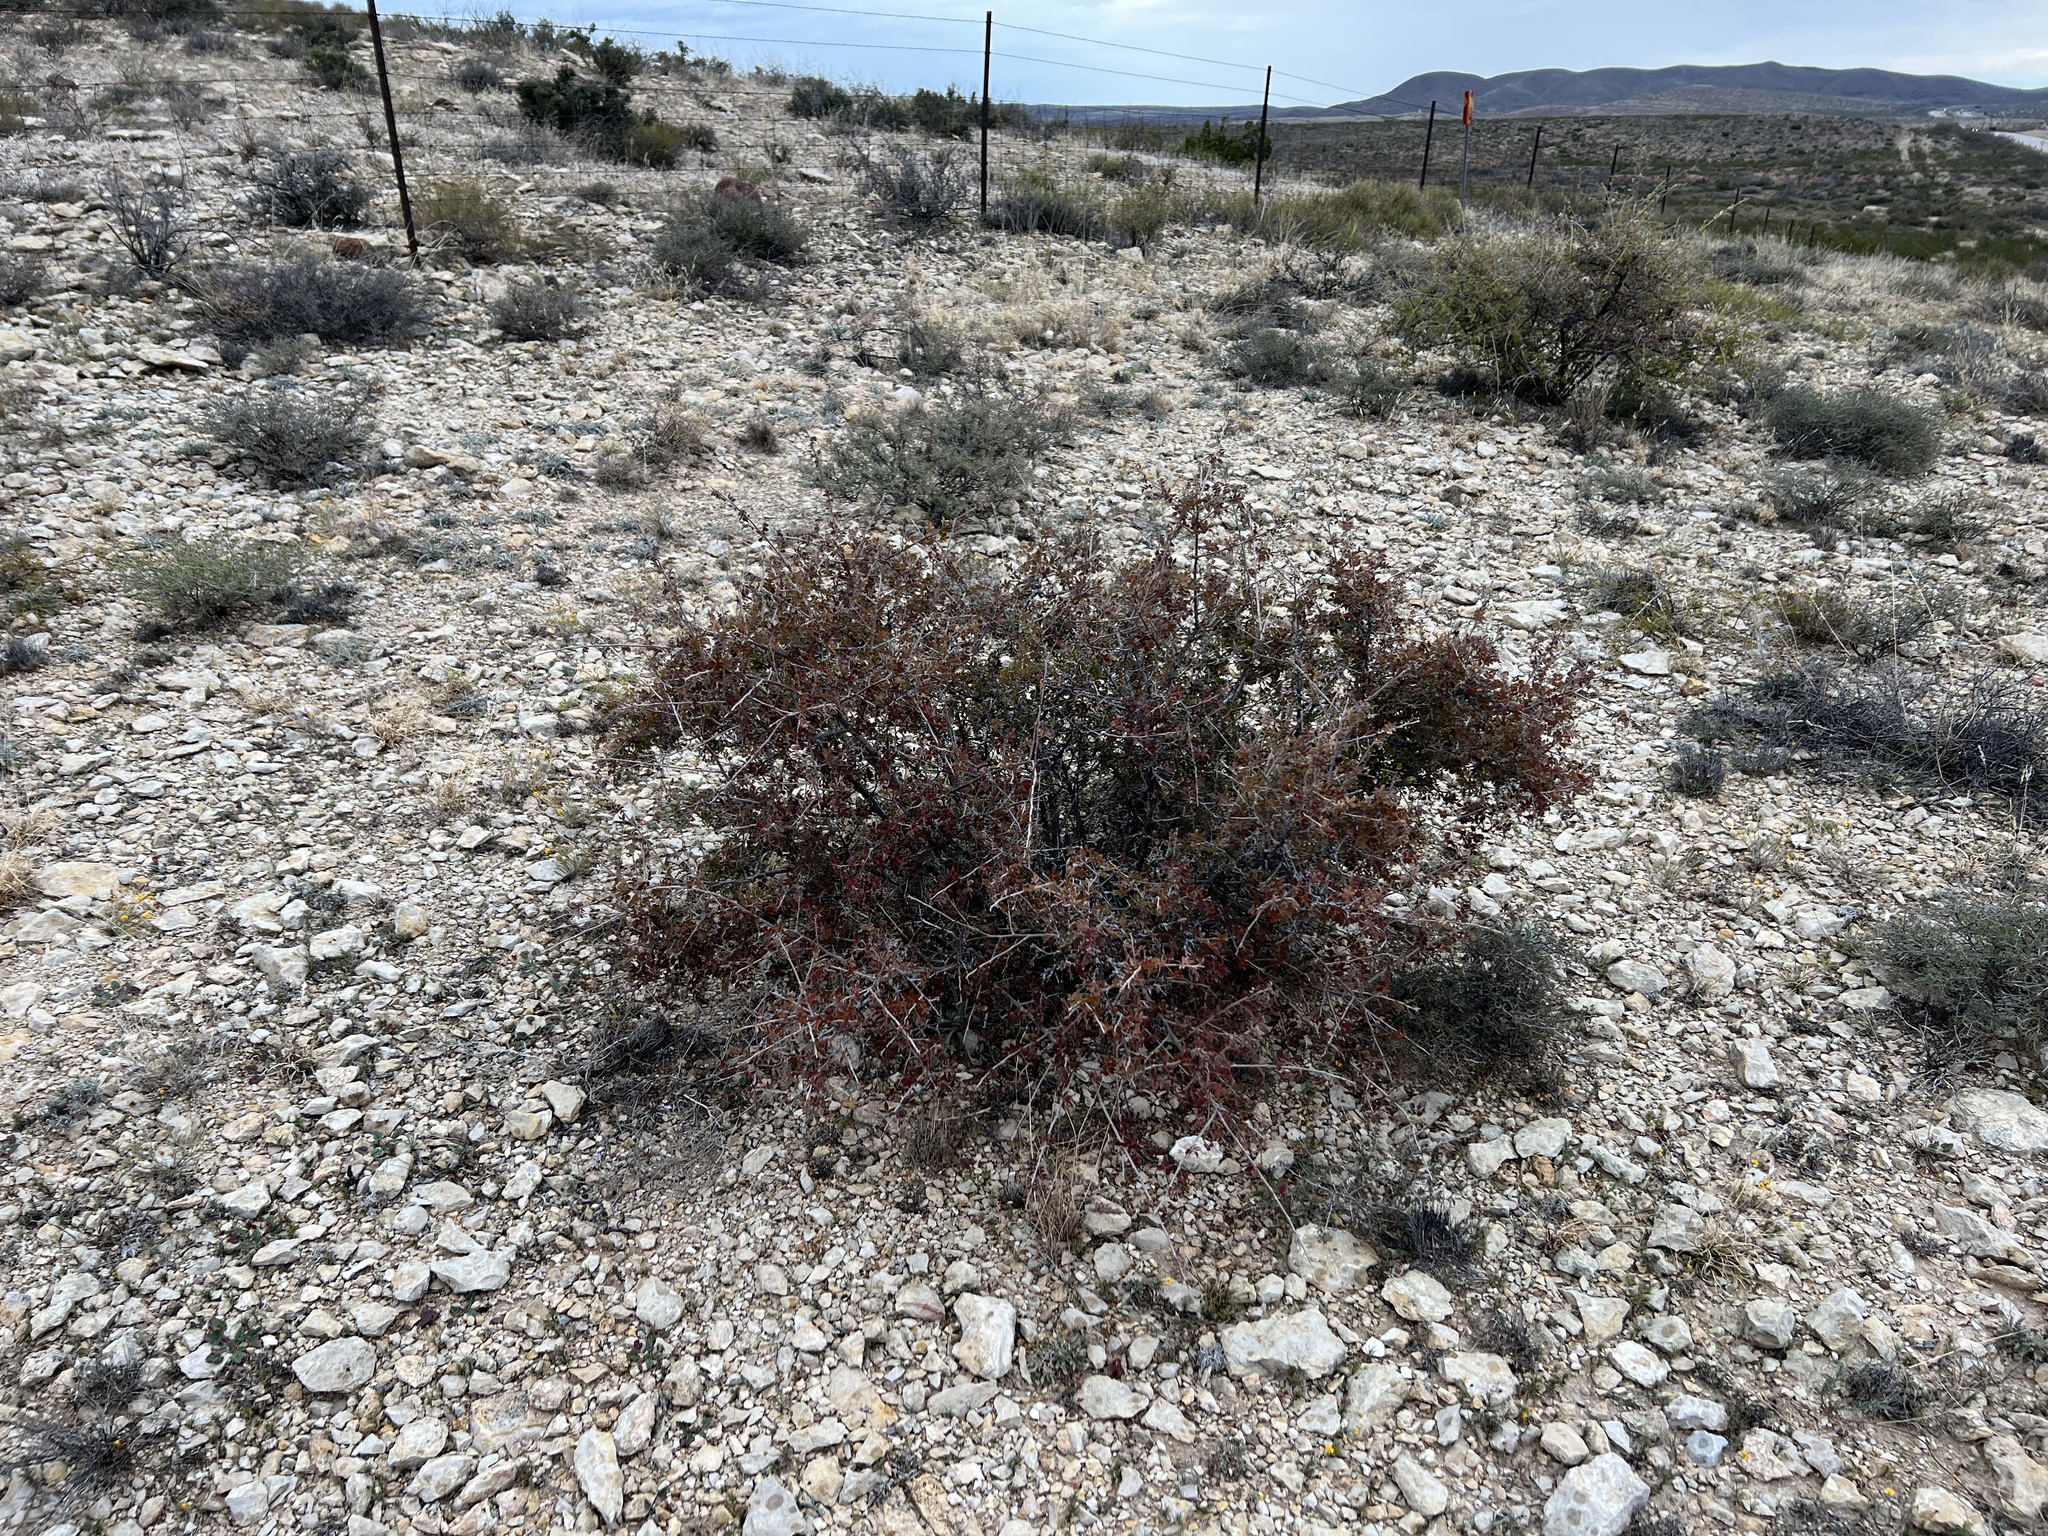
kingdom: Plantae
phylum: Tracheophyta
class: Magnoliopsida
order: Sapindales
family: Anacardiaceae
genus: Rhus
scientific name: Rhus microphylla
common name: Desert sumac
